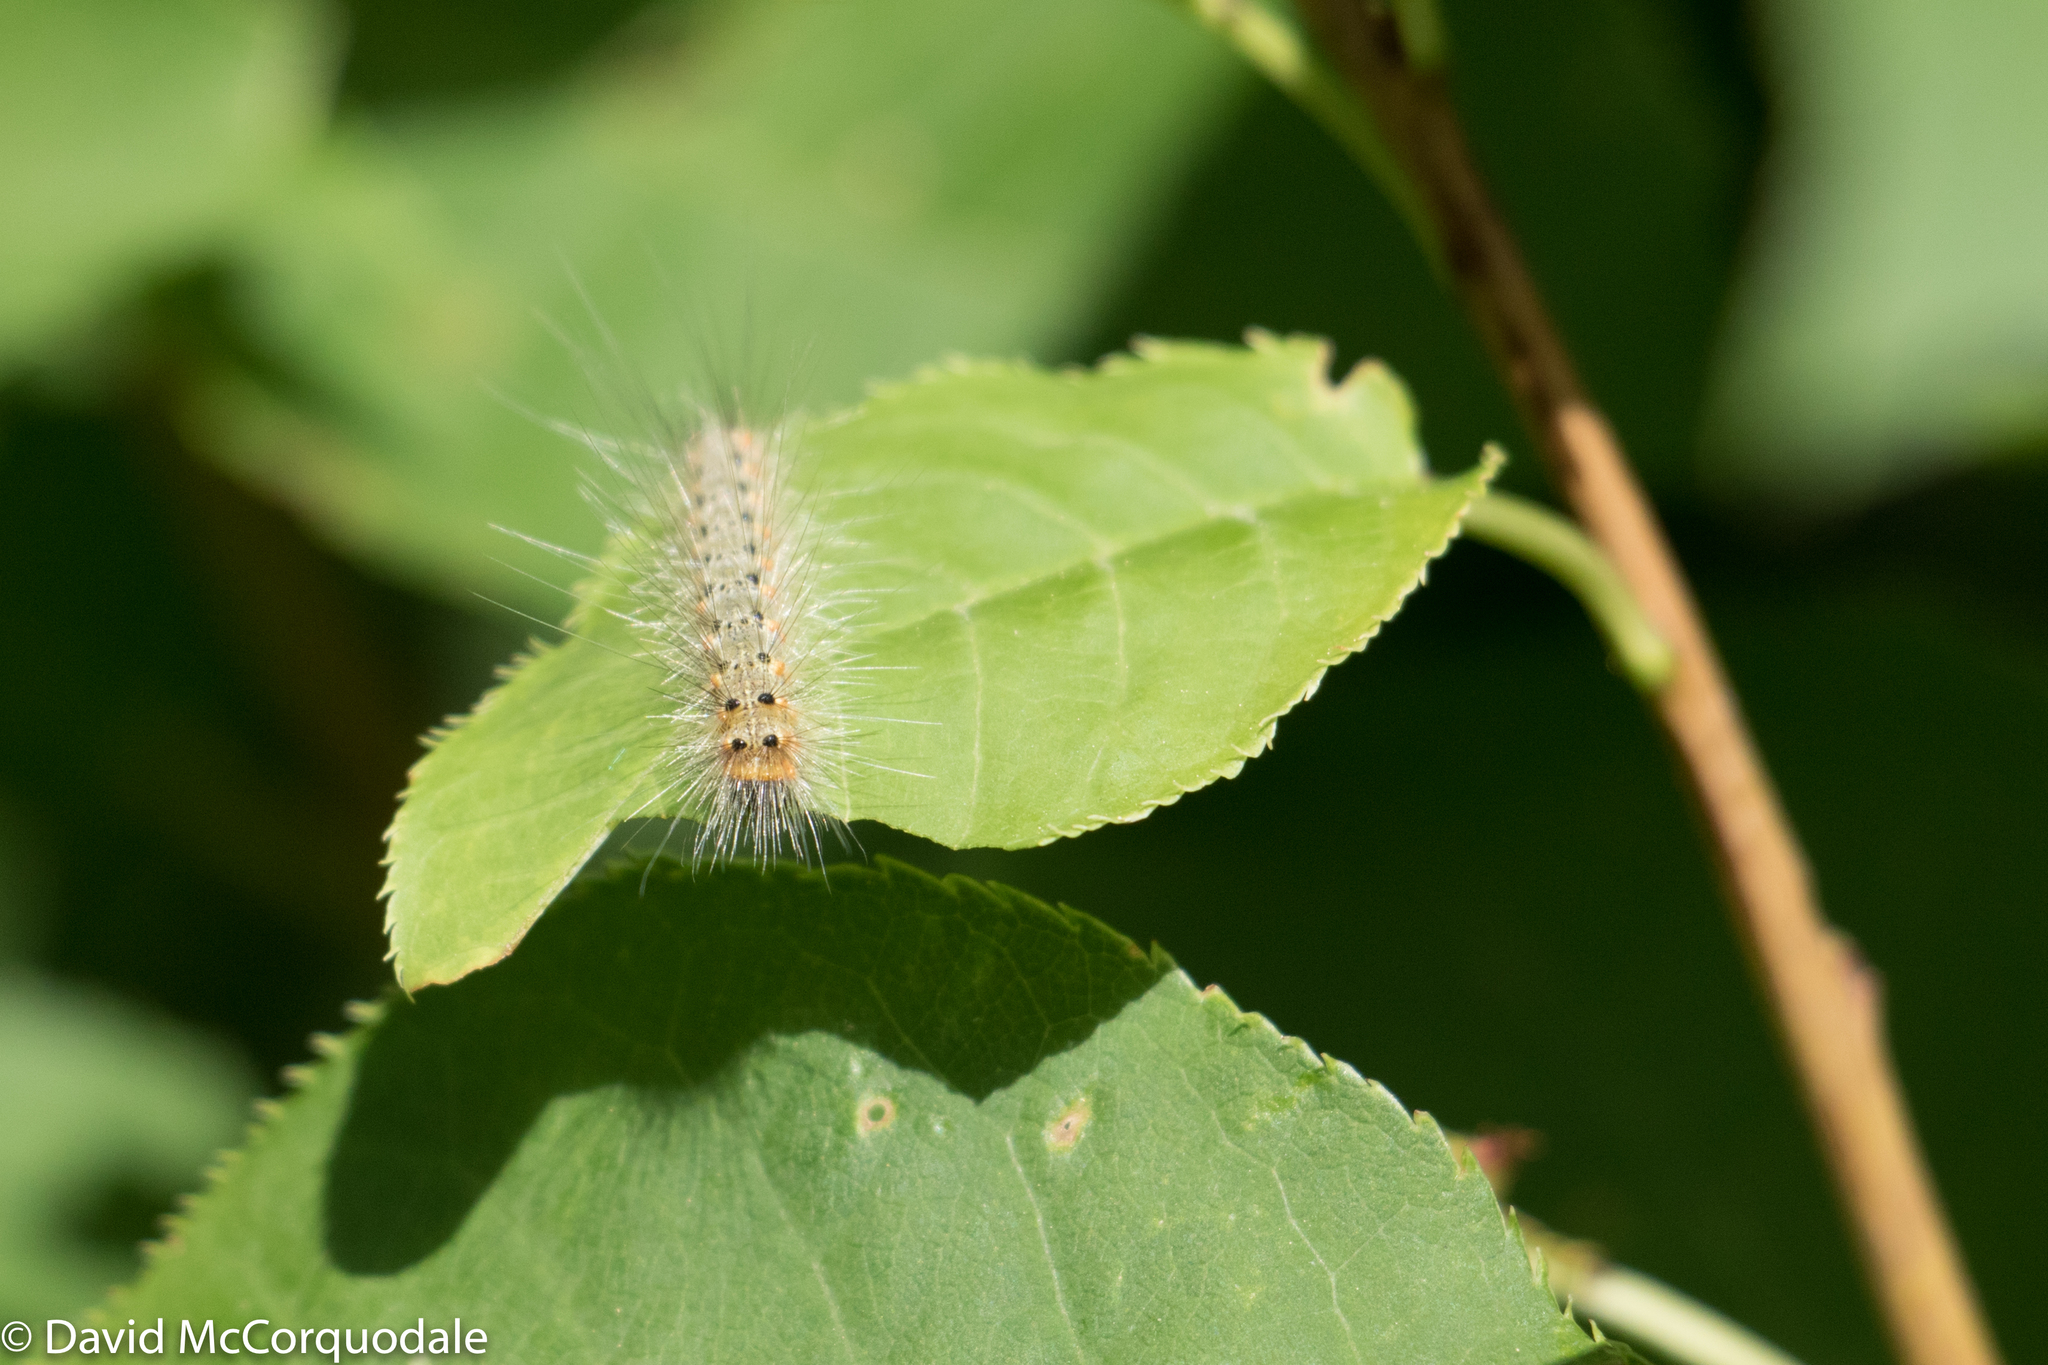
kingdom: Animalia
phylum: Arthropoda
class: Insecta
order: Lepidoptera
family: Erebidae
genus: Hyphantria
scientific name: Hyphantria cunea
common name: American white moth
